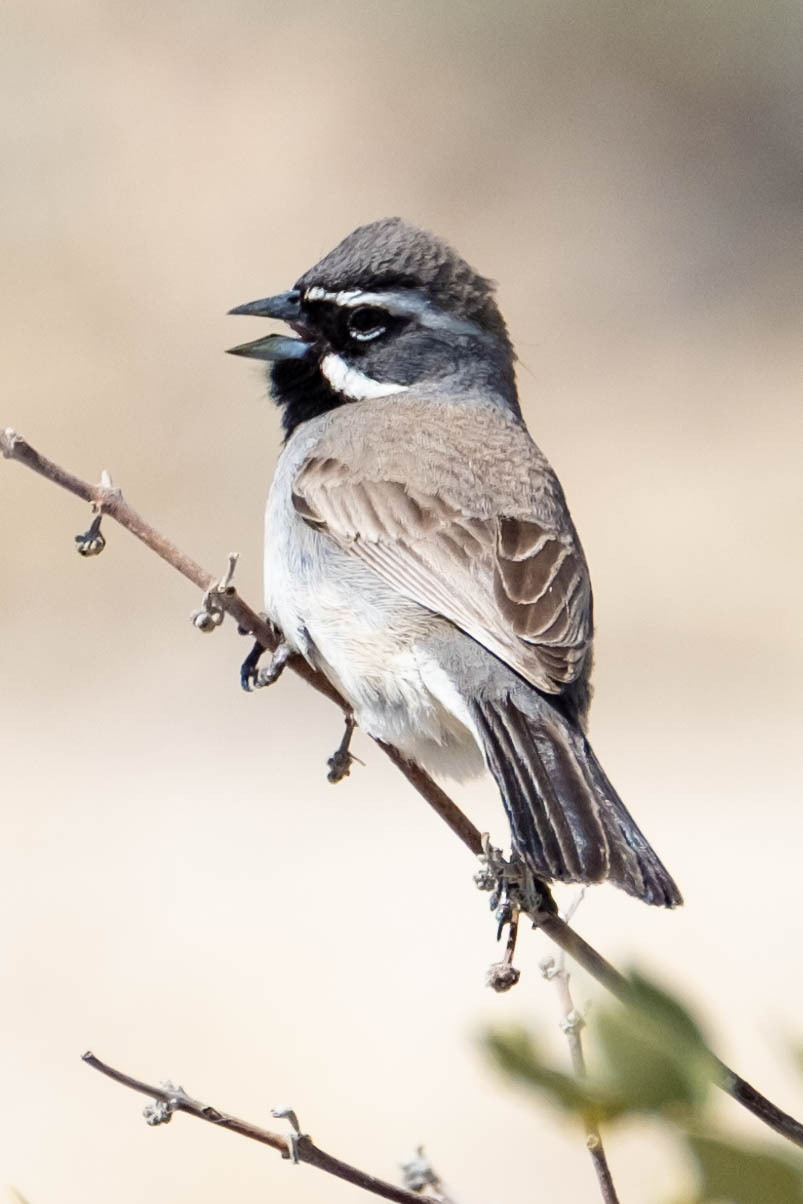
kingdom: Animalia
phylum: Chordata
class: Aves
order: Passeriformes
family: Passerellidae
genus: Amphispiza
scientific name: Amphispiza bilineata
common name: Black-throated sparrow
